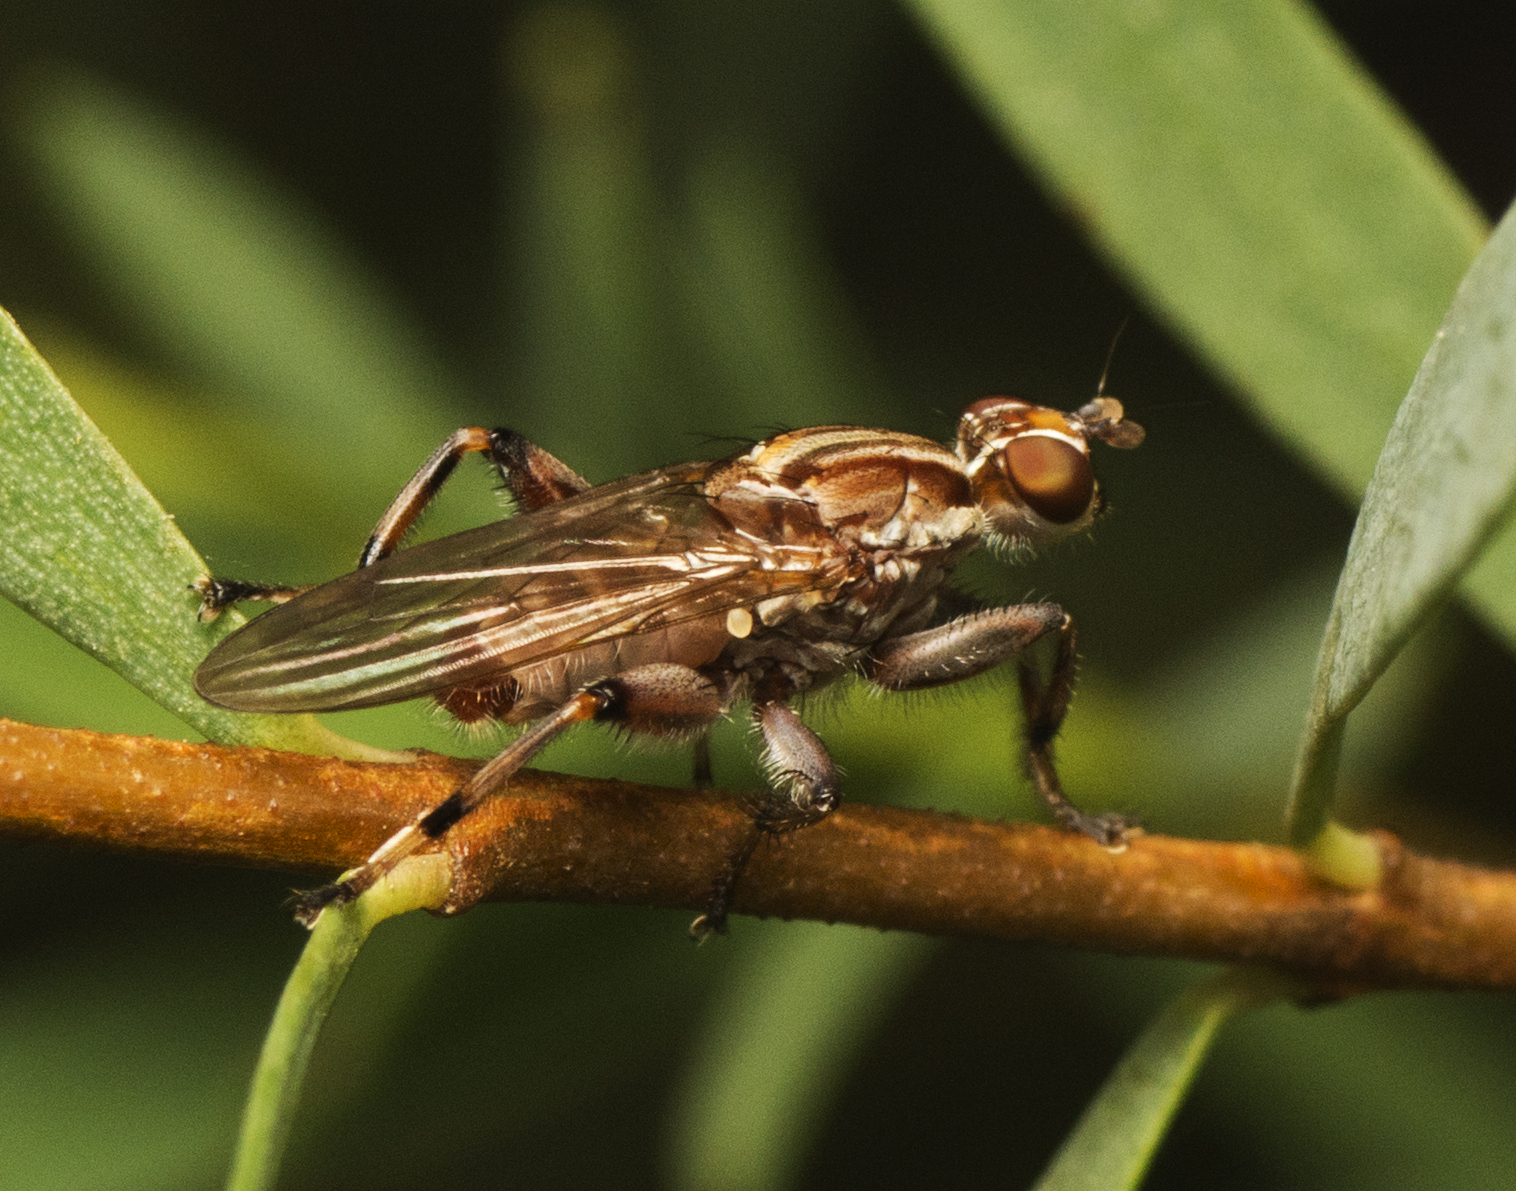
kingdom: Animalia
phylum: Arthropoda
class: Insecta
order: Diptera
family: Heleomyzidae
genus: Tapeigaster
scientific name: Tapeigaster nigricornis
